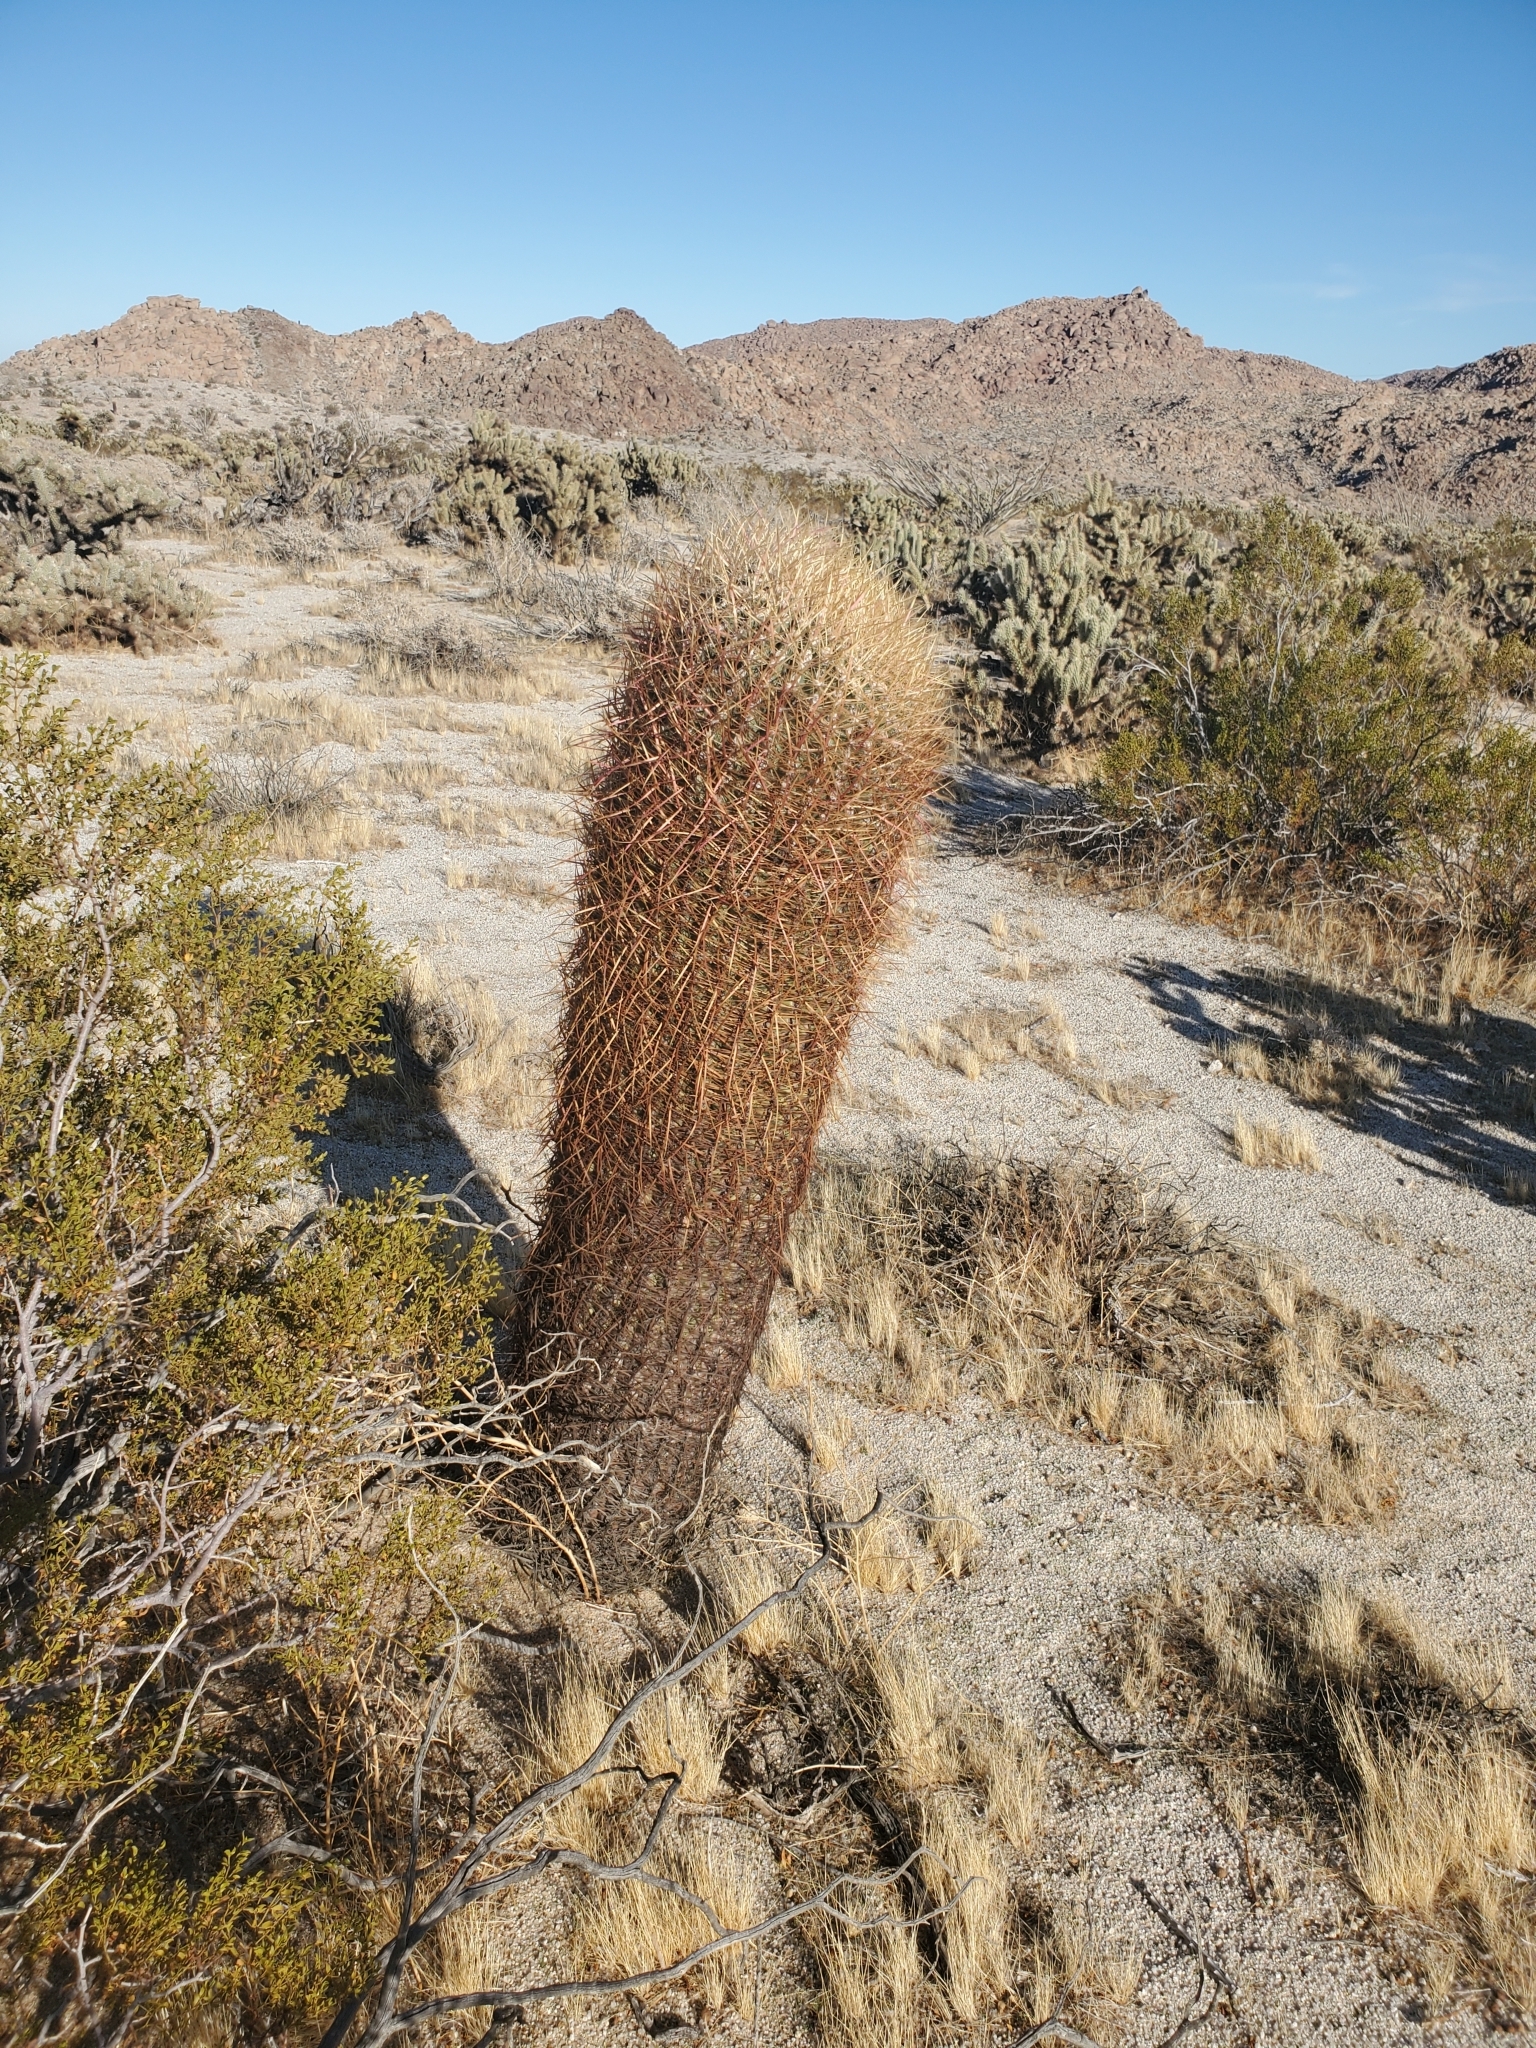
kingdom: Plantae
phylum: Tracheophyta
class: Magnoliopsida
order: Caryophyllales
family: Cactaceae
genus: Ferocactus
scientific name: Ferocactus cylindraceus
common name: California barrel cactus
